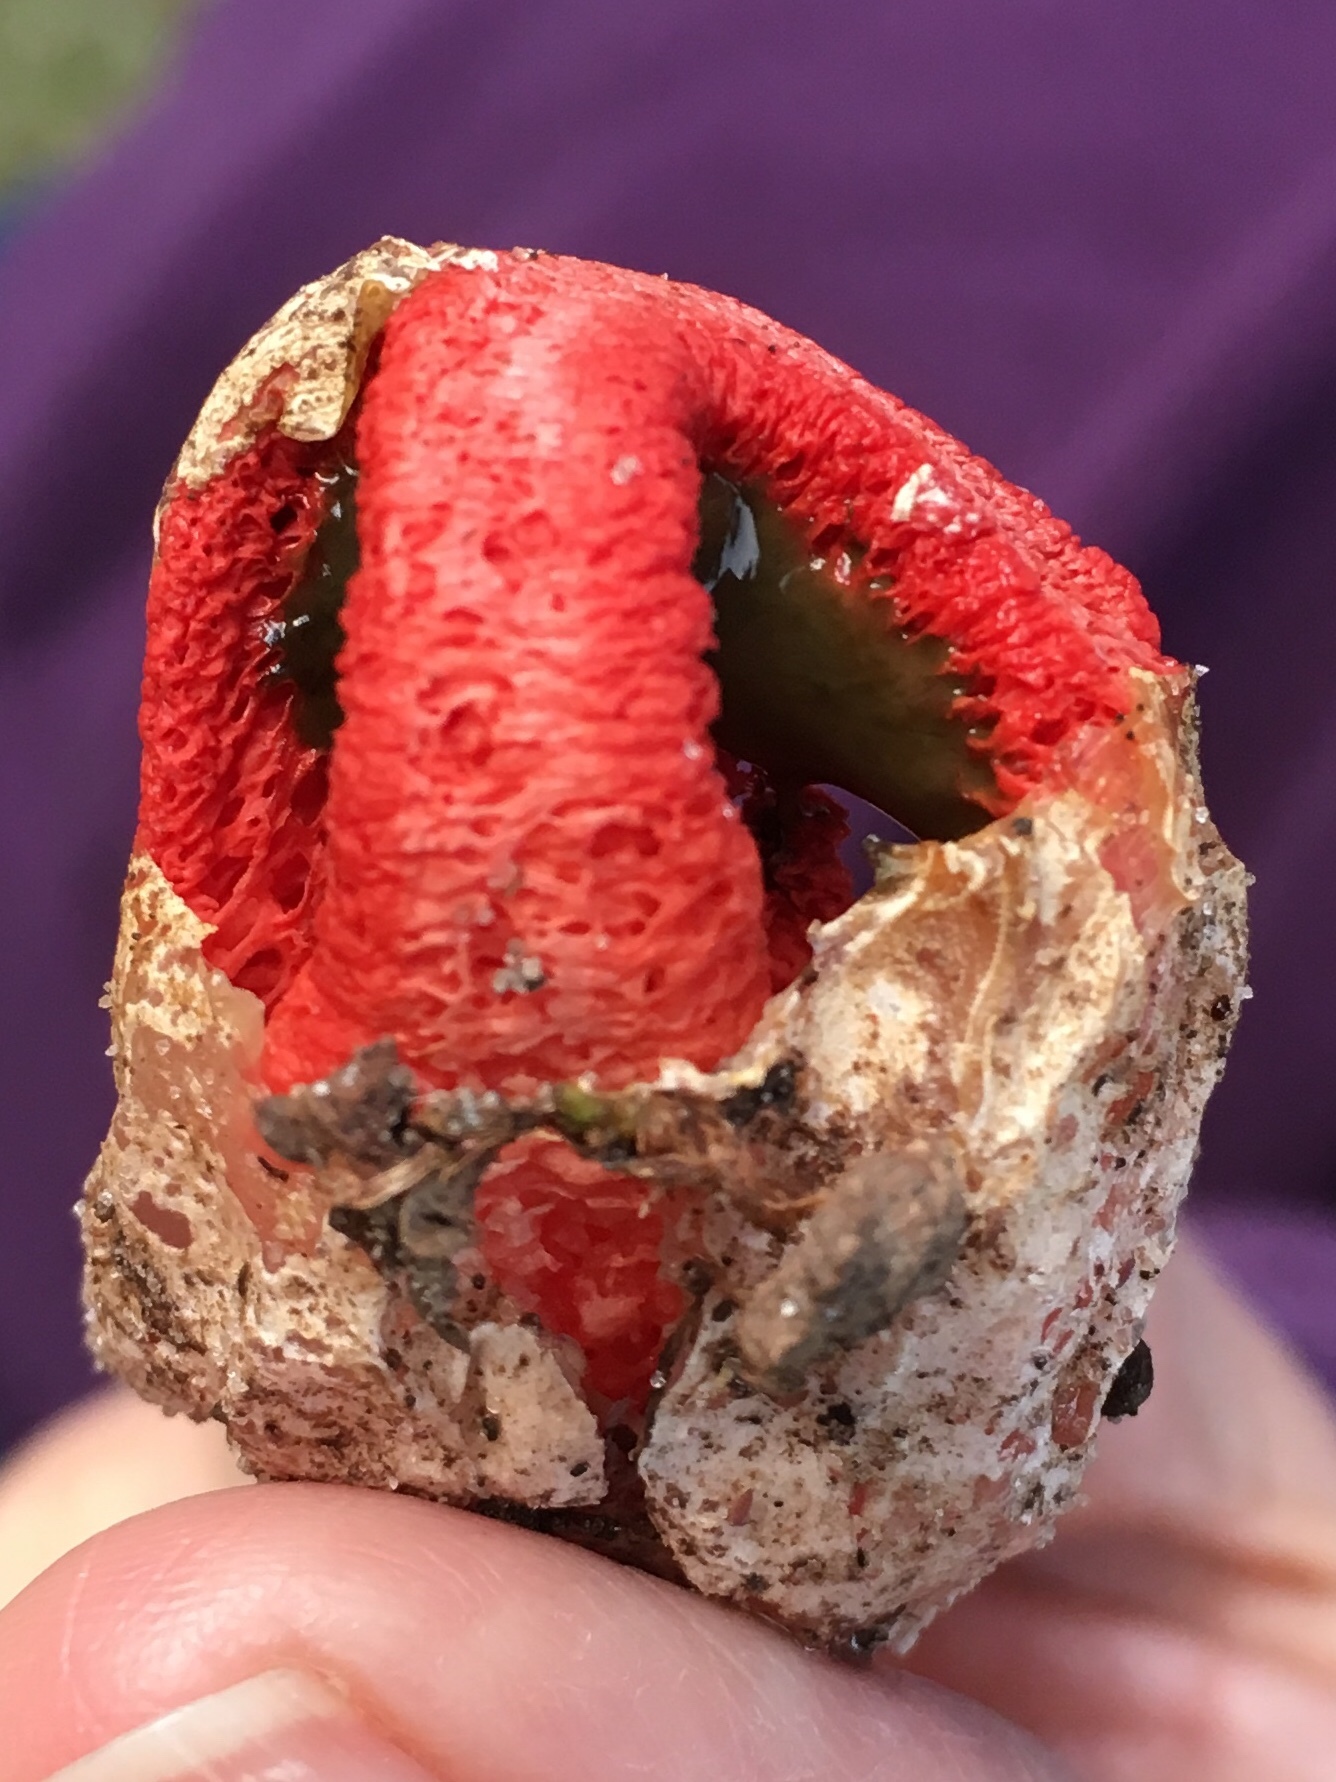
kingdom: Fungi
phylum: Basidiomycota
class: Agaricomycetes
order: Phallales
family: Phallaceae
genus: Clathrus
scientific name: Clathrus columnatus
